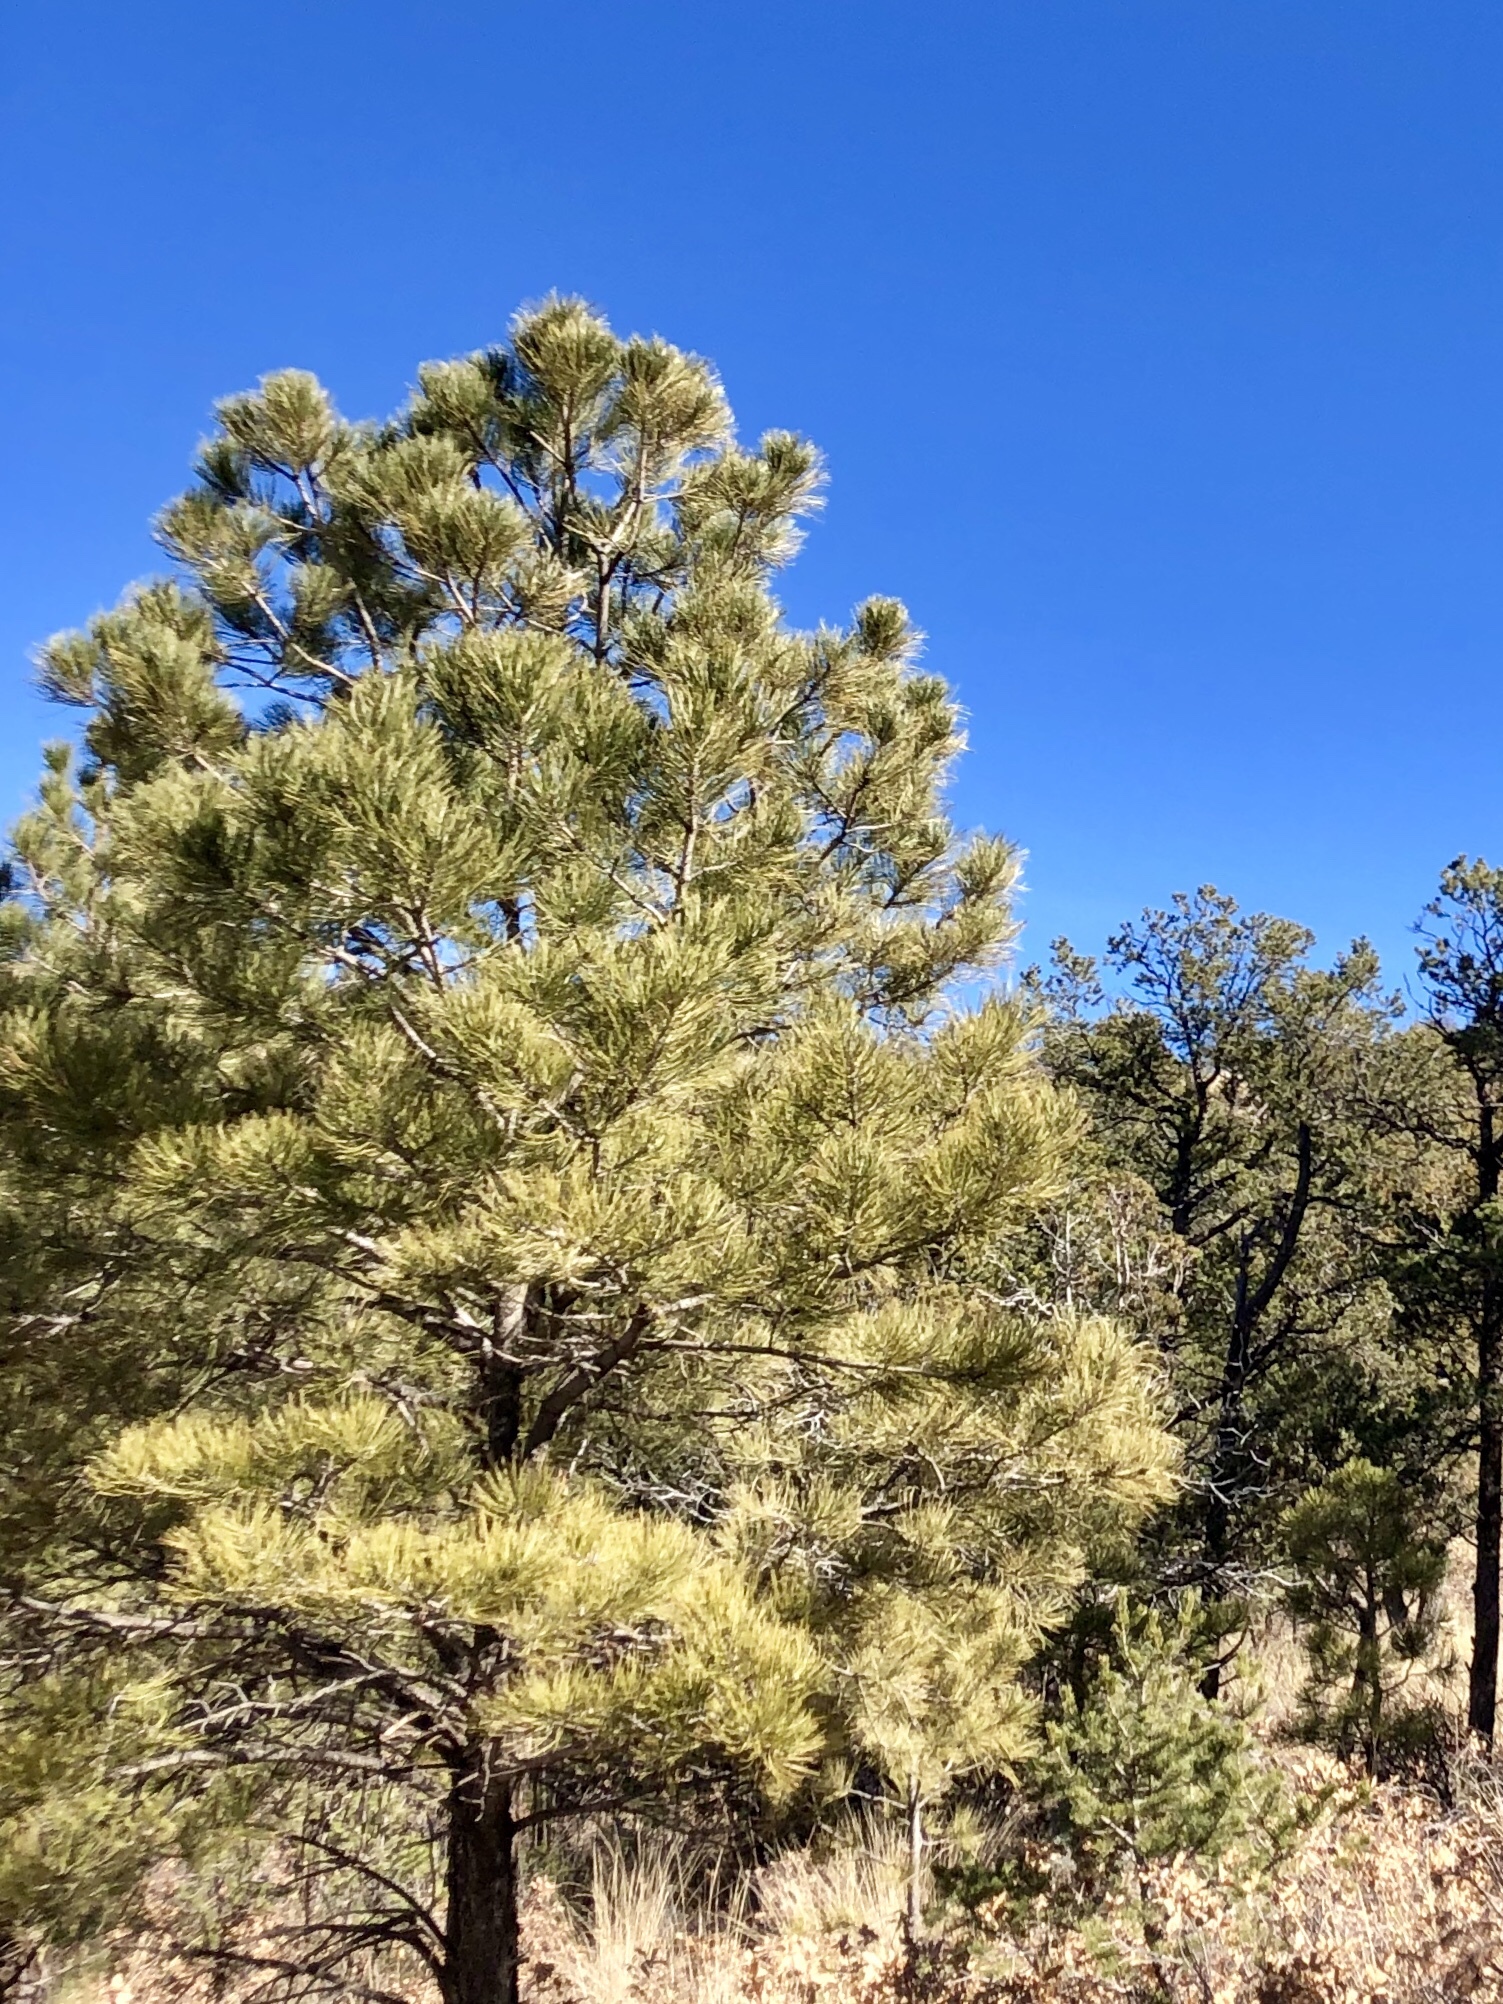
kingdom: Plantae
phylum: Tracheophyta
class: Pinopsida
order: Pinales
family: Pinaceae
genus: Pinus
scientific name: Pinus ponderosa
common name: Western yellow-pine
